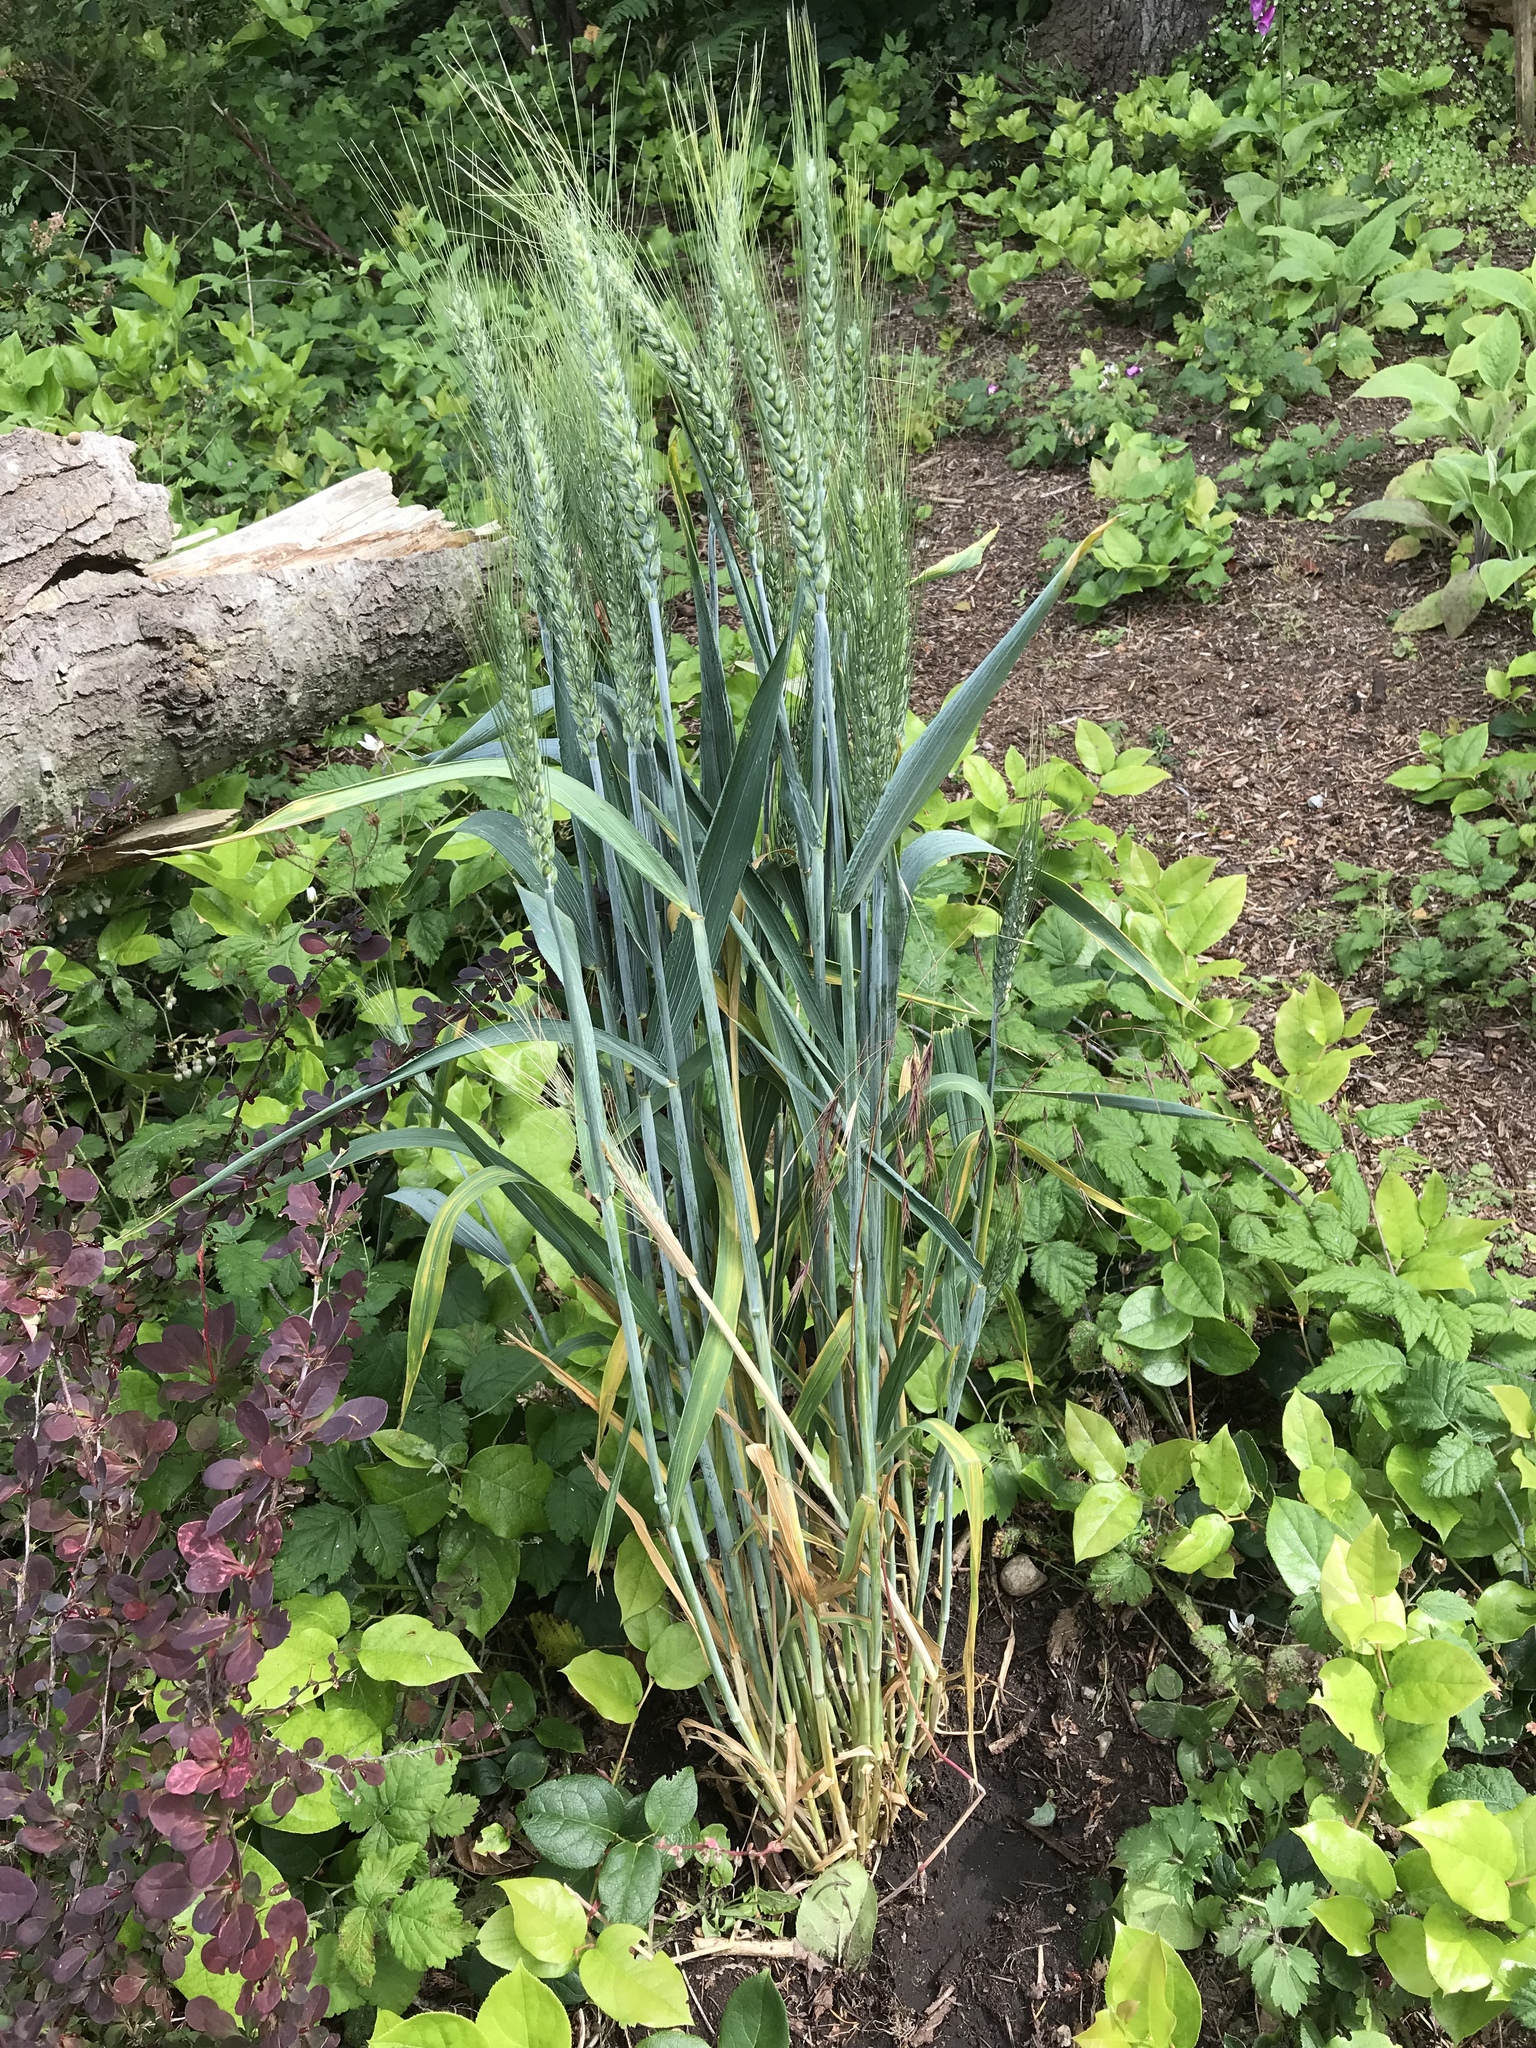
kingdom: Plantae
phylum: Tracheophyta
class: Liliopsida
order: Poales
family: Poaceae
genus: Triticum
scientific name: Triticum aestivum
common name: Common wheat
